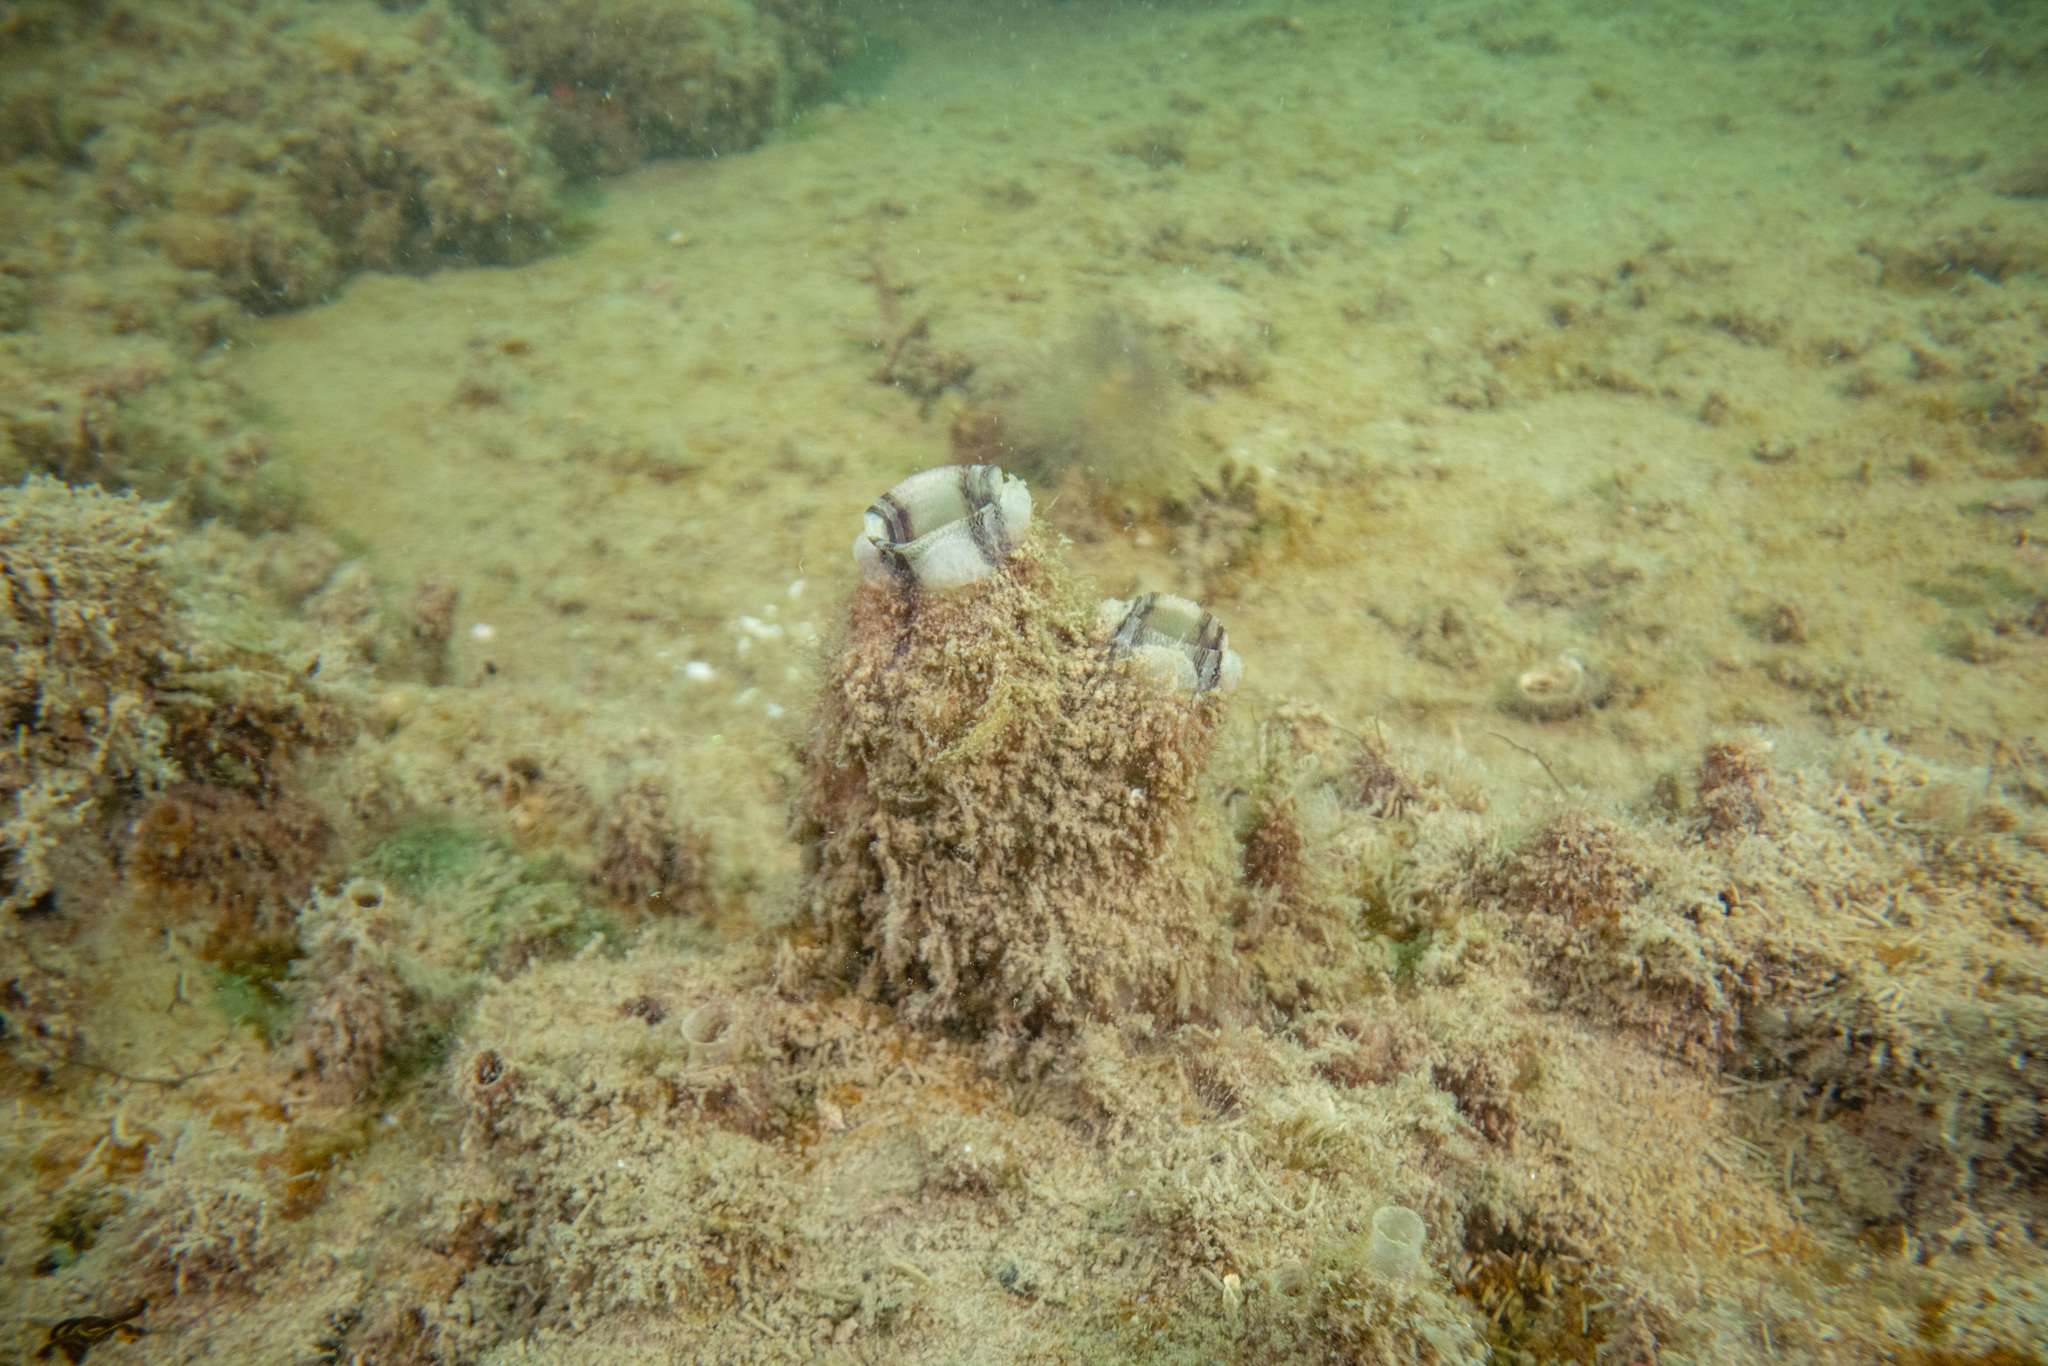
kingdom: Animalia
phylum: Chordata
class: Ascidiacea
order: Stolidobranchia
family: Styelidae
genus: Styela
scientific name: Styela plicata
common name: Pleated tunicate
